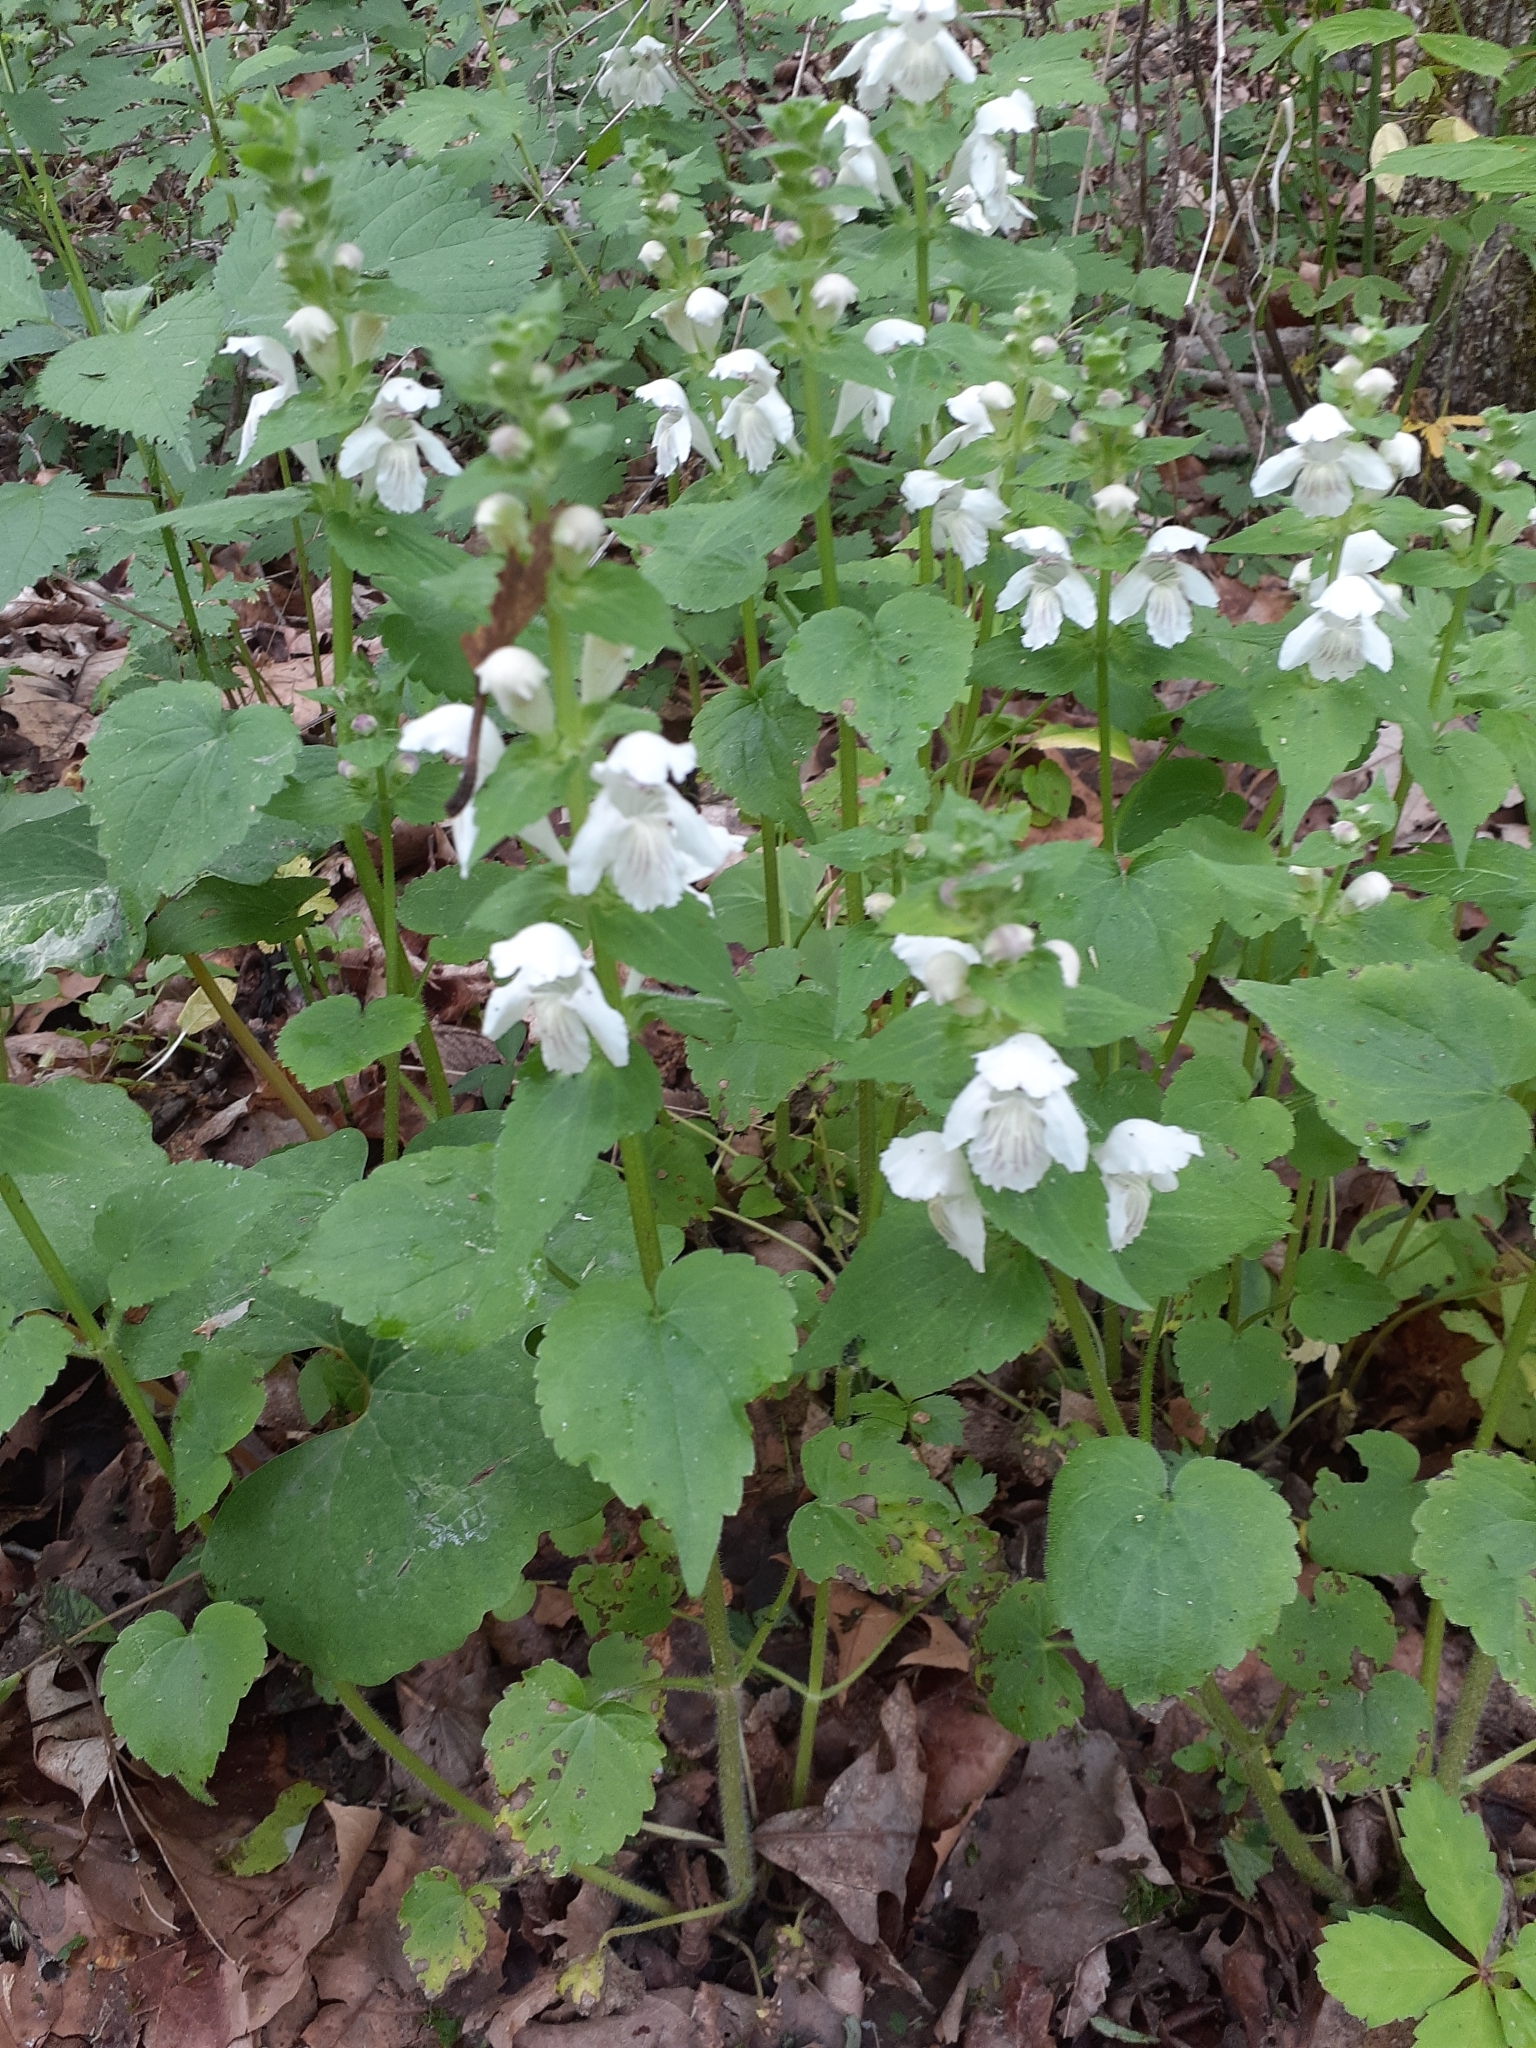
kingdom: Plantae
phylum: Tracheophyta
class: Magnoliopsida
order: Lamiales
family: Lamiaceae
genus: Synandra
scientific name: Synandra hispidula
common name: Synandra
